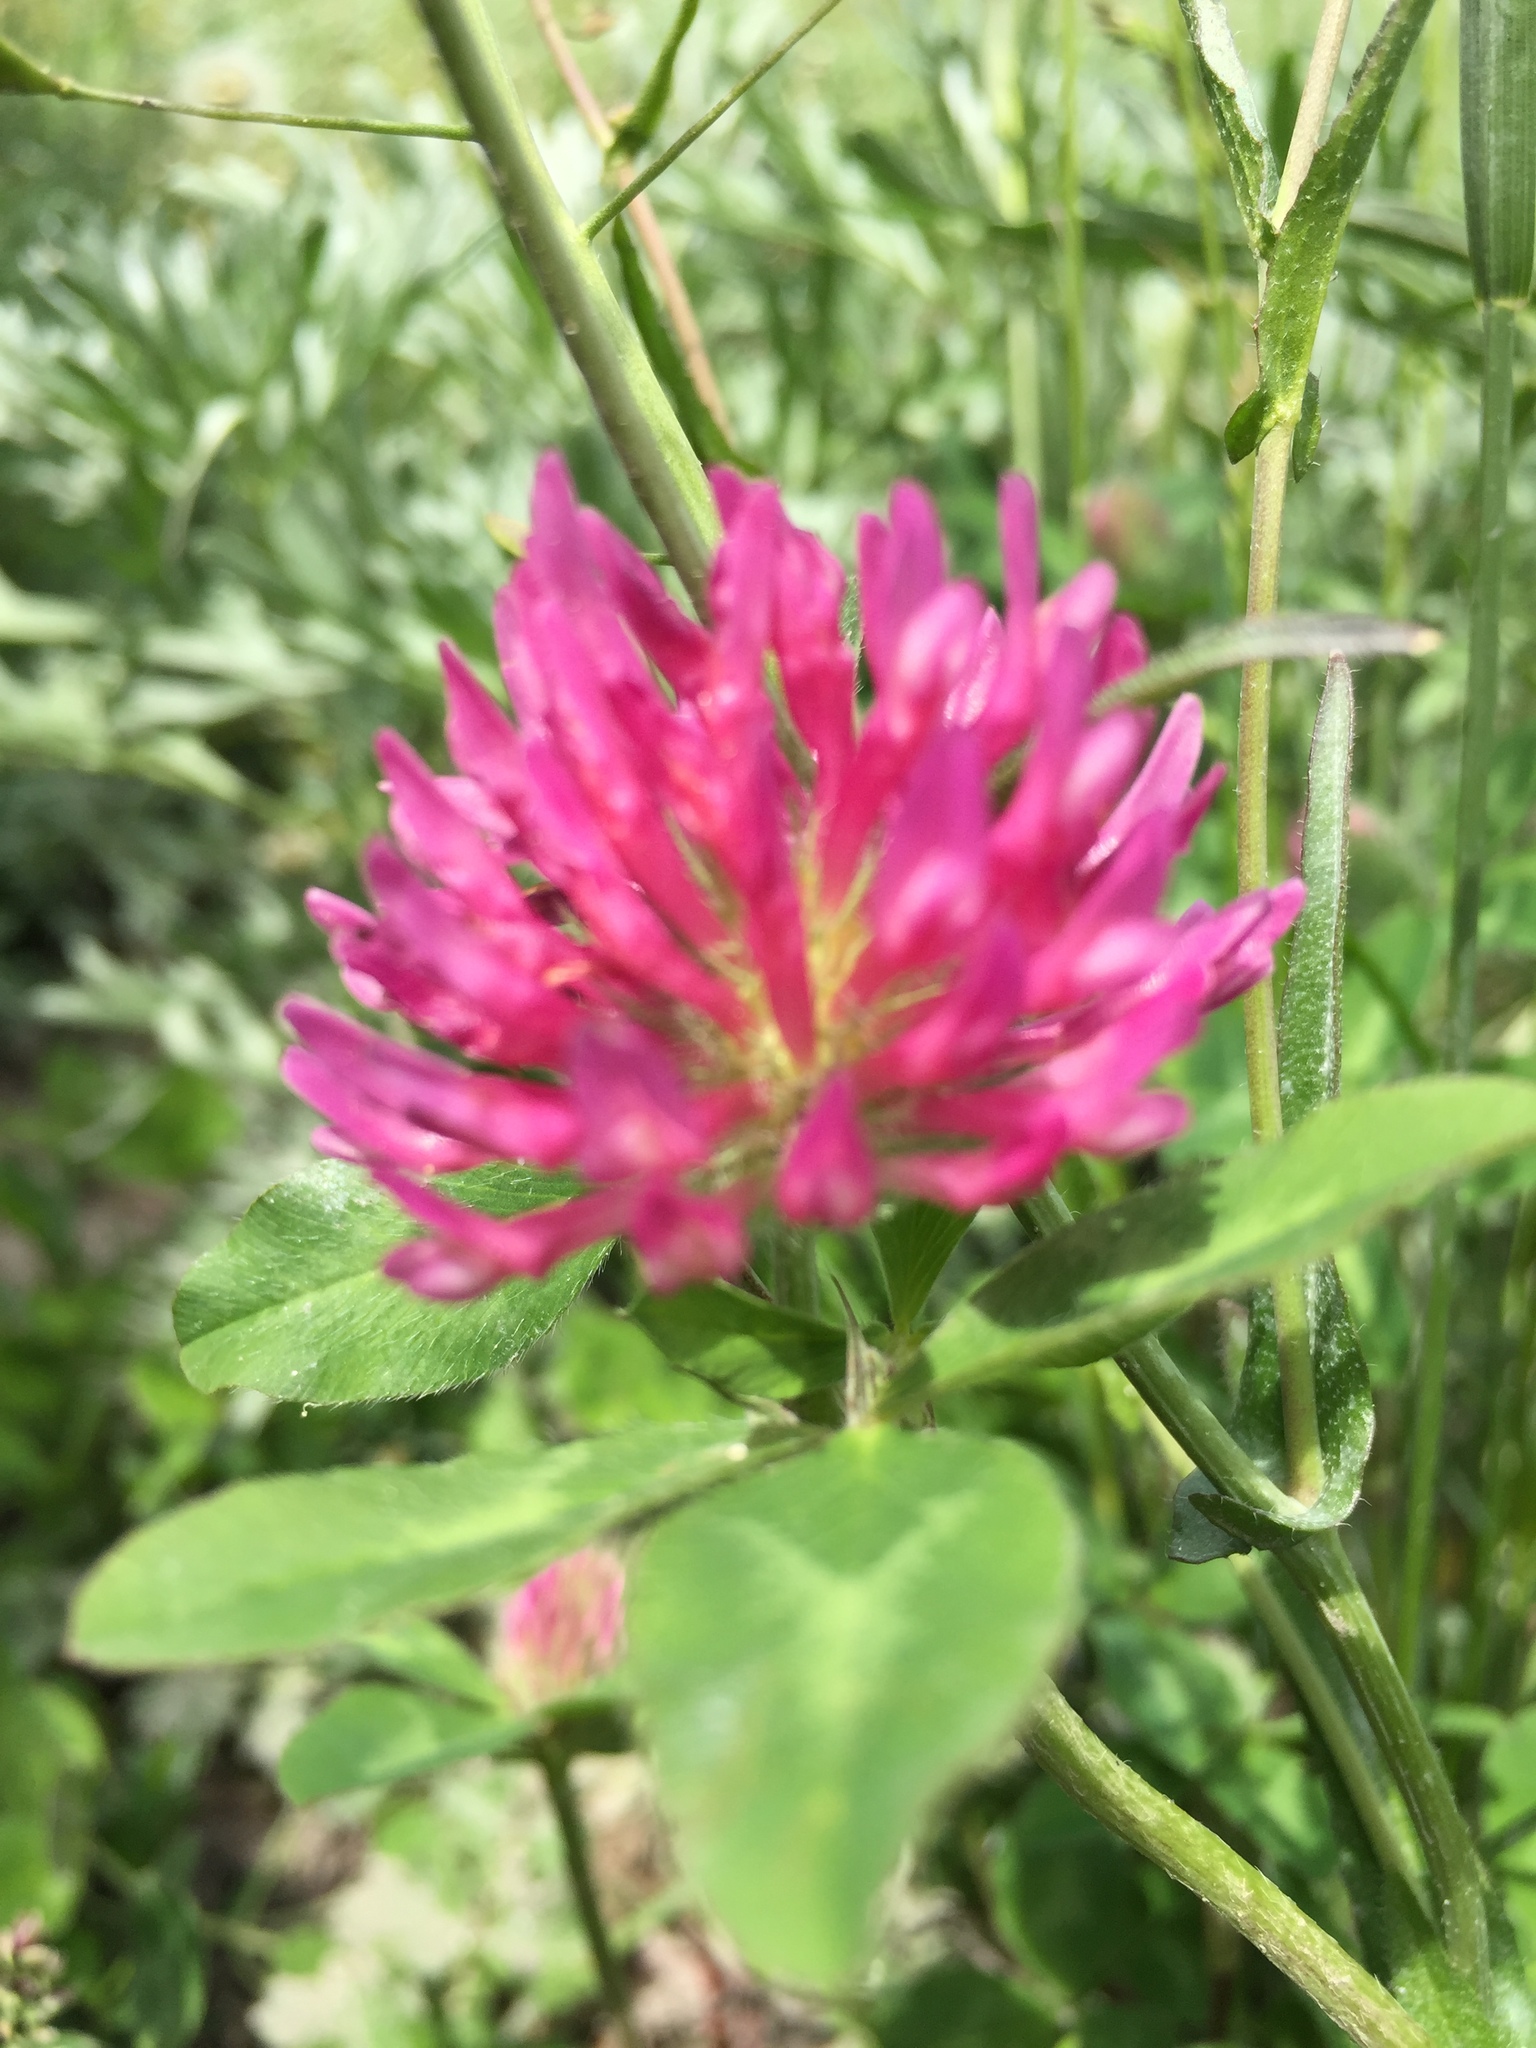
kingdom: Plantae
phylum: Tracheophyta
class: Magnoliopsida
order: Fabales
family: Fabaceae
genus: Trifolium
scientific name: Trifolium pratense
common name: Red clover
